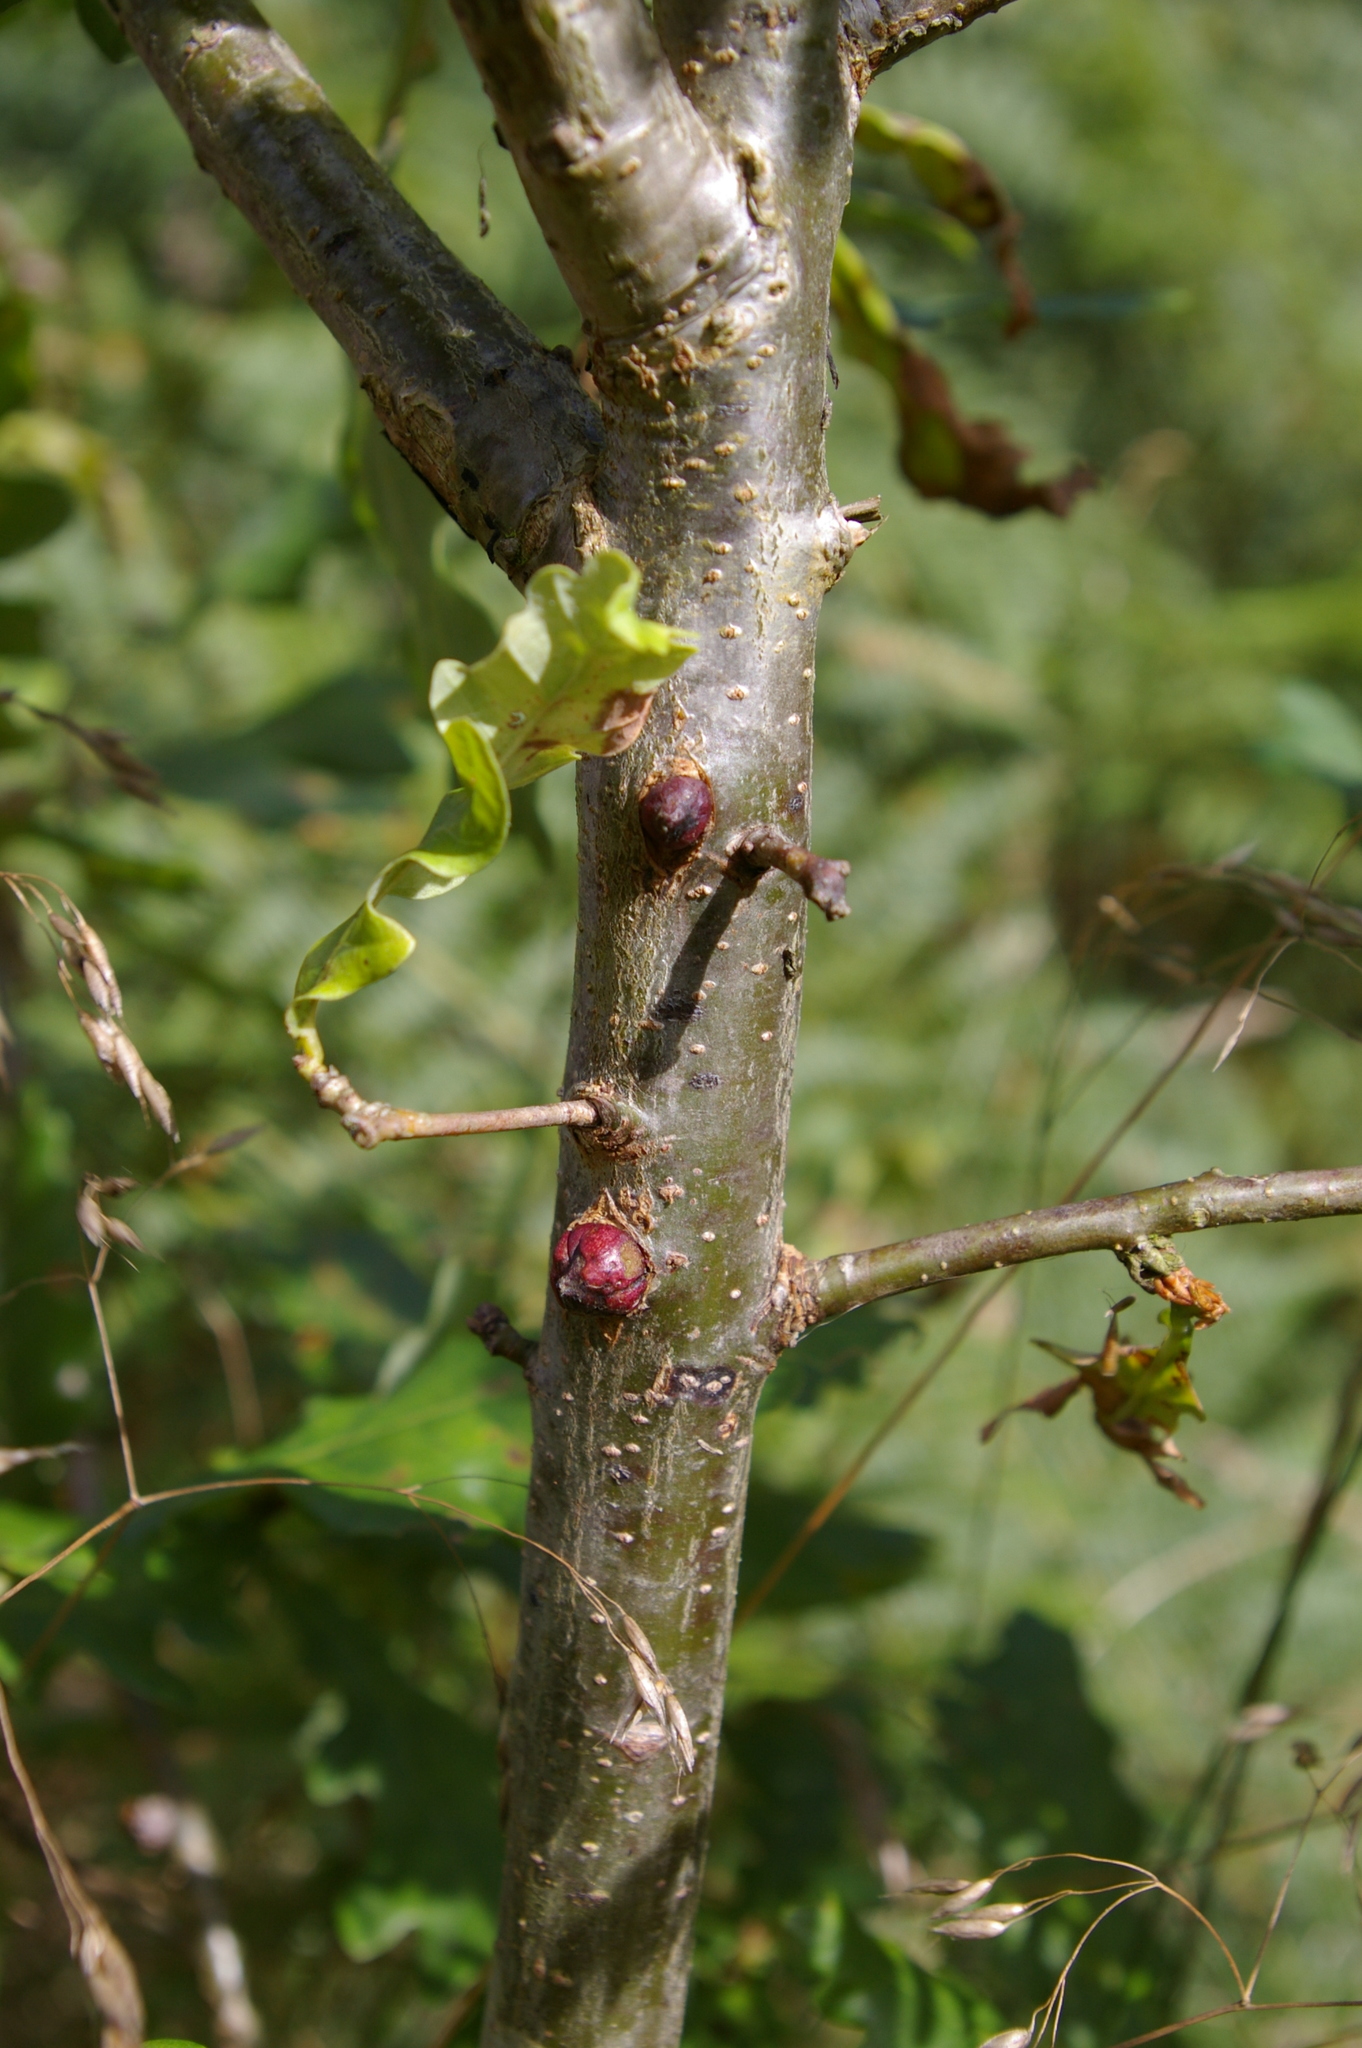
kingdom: Animalia
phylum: Arthropoda
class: Insecta
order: Hymenoptera
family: Cynipidae
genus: Andricus
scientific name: Andricus sieboldi
